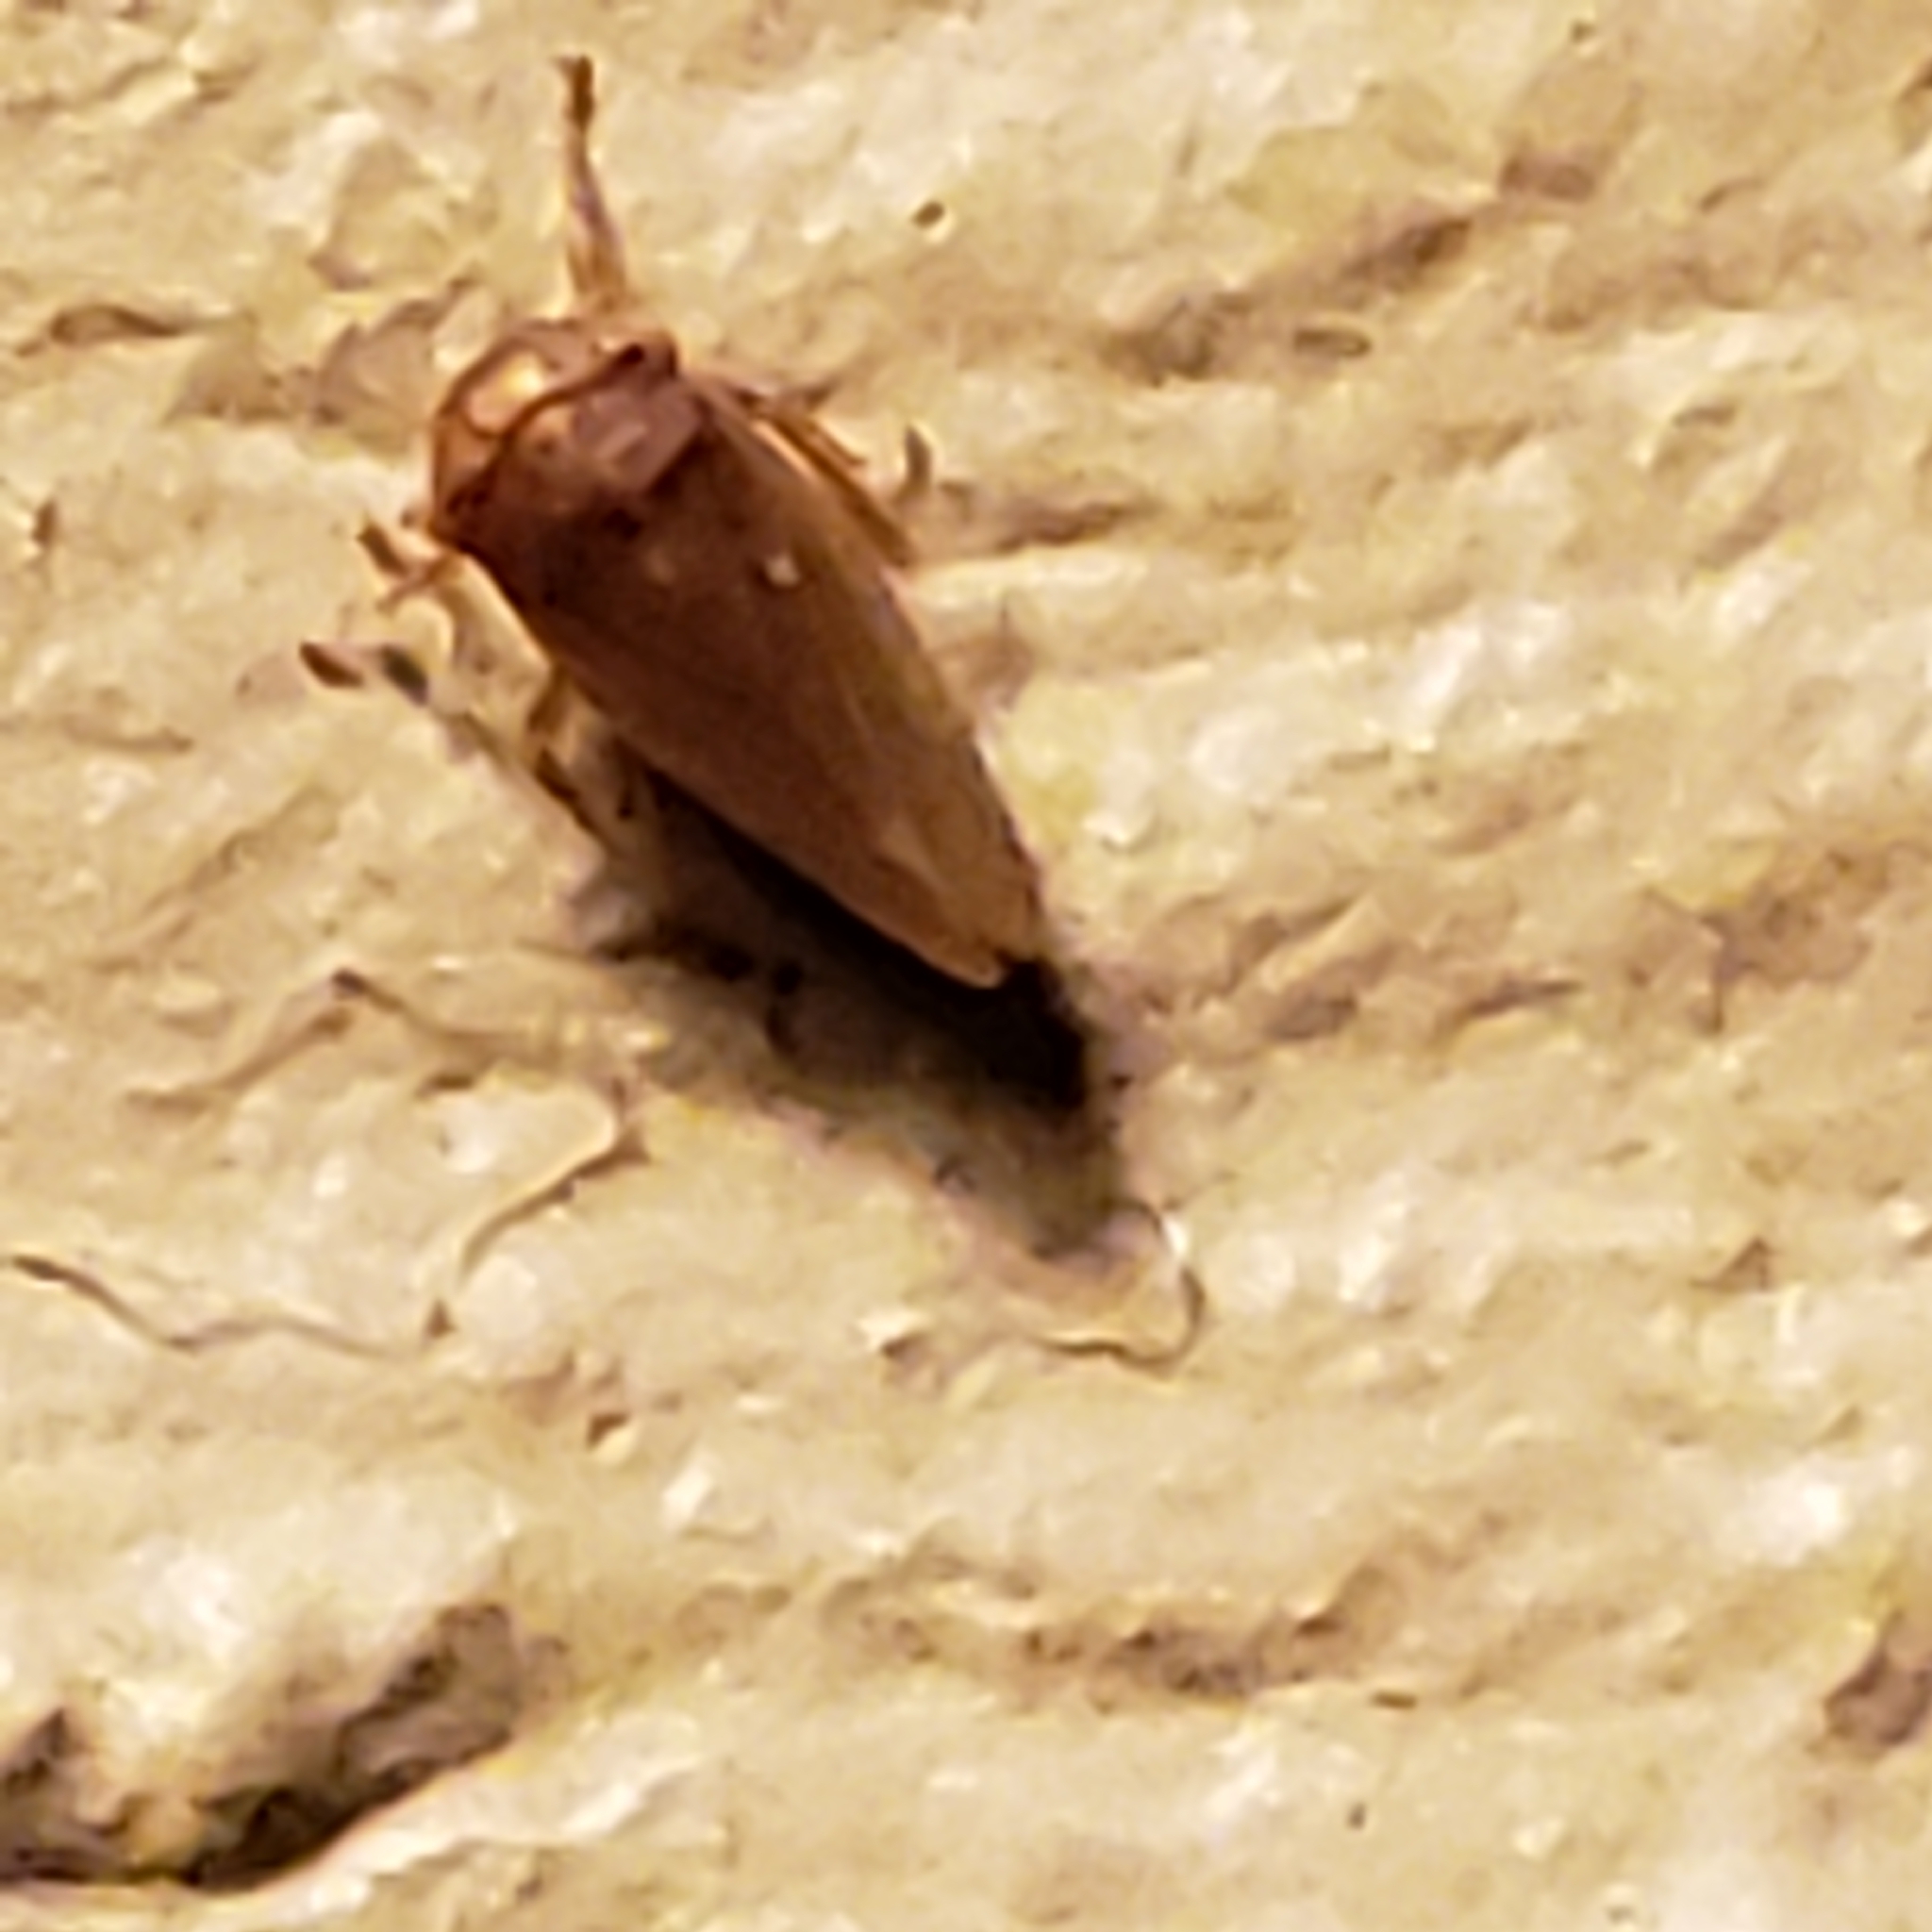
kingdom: Animalia
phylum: Arthropoda
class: Insecta
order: Hemiptera
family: Cicadellidae
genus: Agallia
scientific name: Agallia deleta
